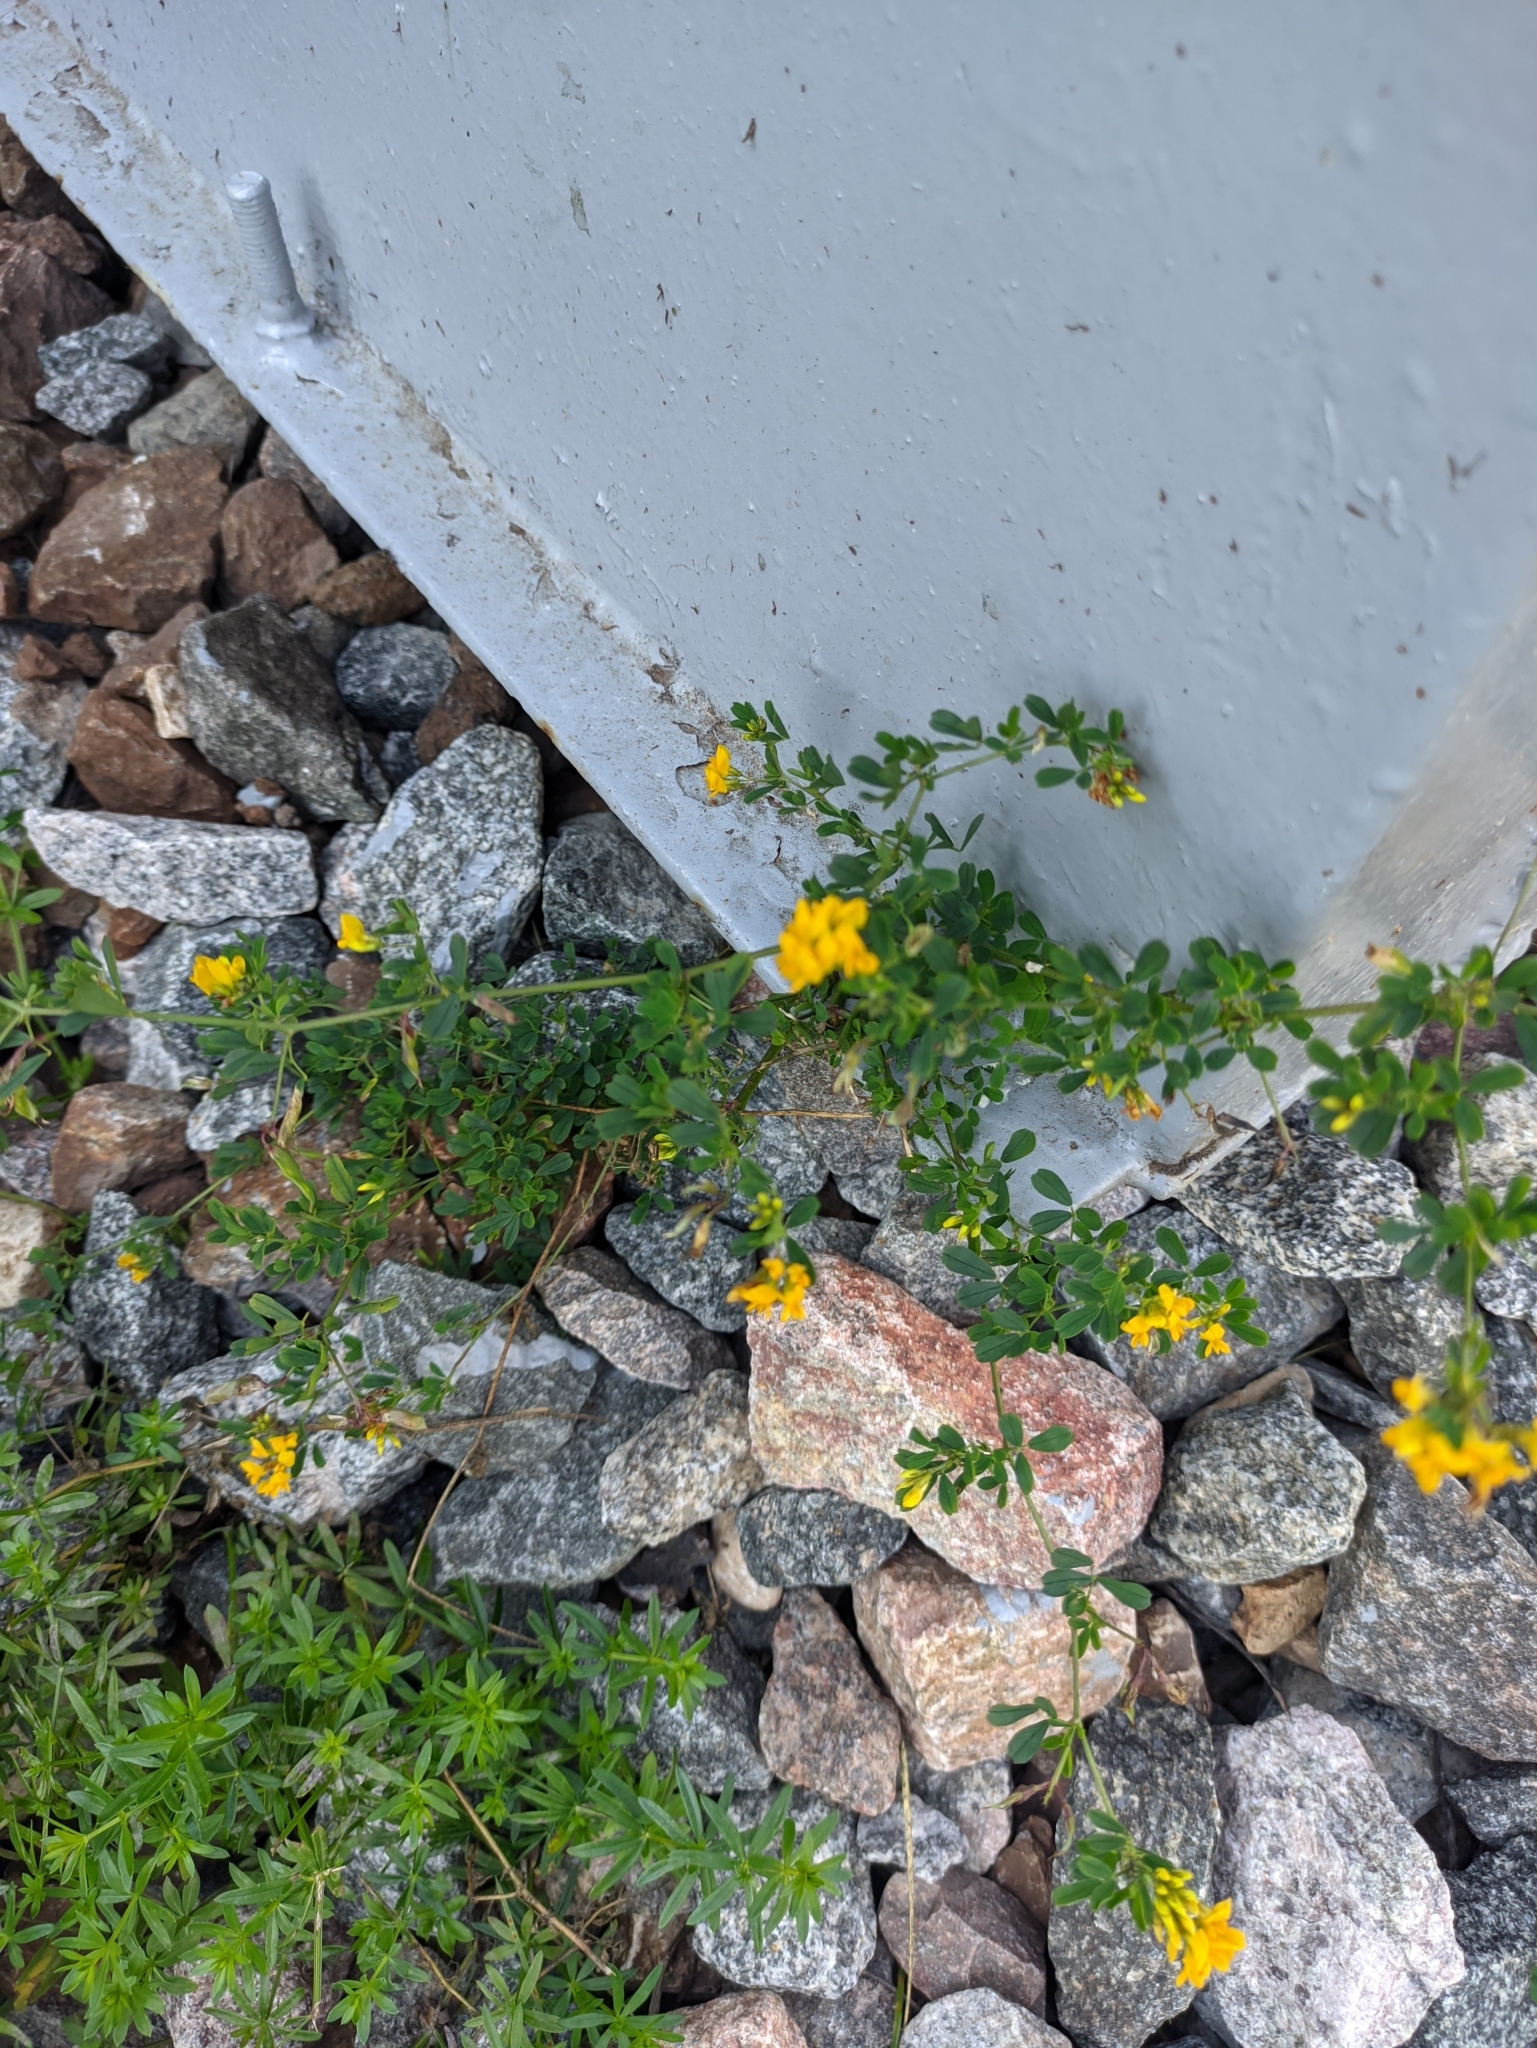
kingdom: Plantae
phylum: Tracheophyta
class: Magnoliopsida
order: Fabales
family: Fabaceae
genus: Medicago
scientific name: Medicago falcata
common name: Sickle medick
